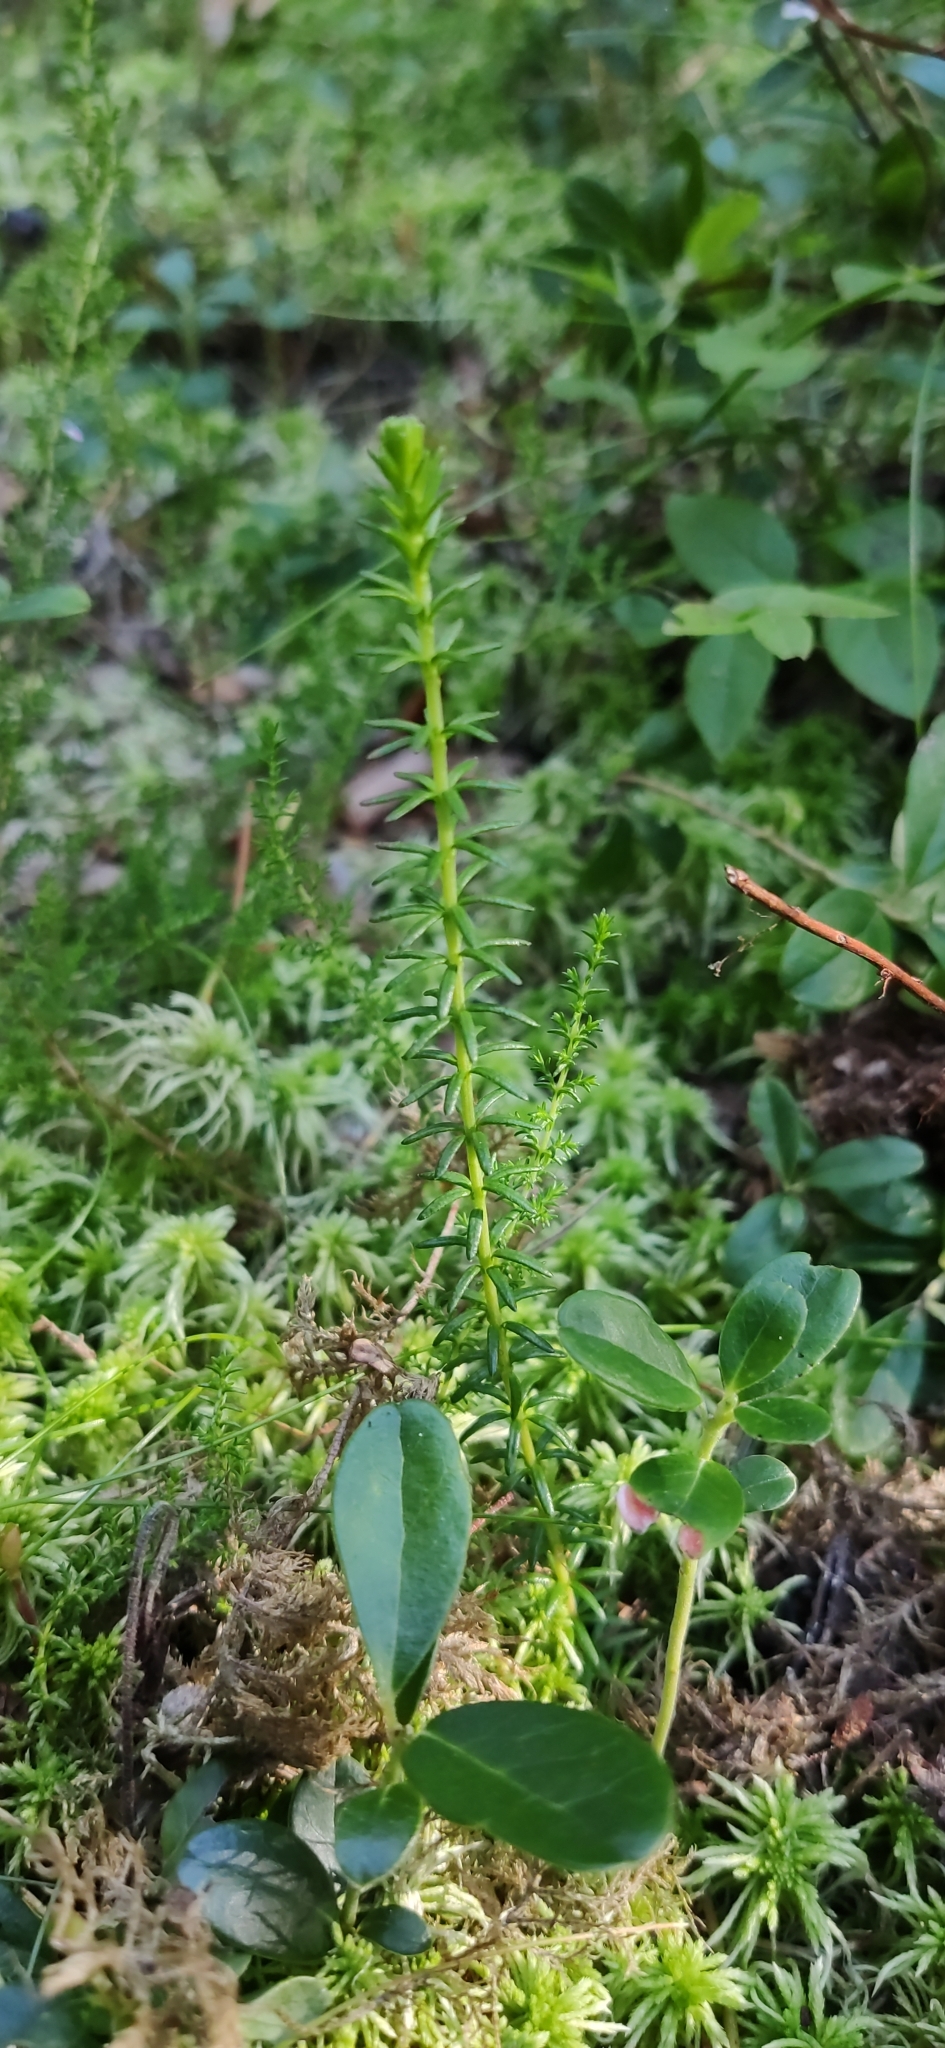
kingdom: Plantae
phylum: Tracheophyta
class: Magnoliopsida
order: Ericales
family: Ericaceae
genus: Empetrum
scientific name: Empetrum nigrum
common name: Black crowberry
